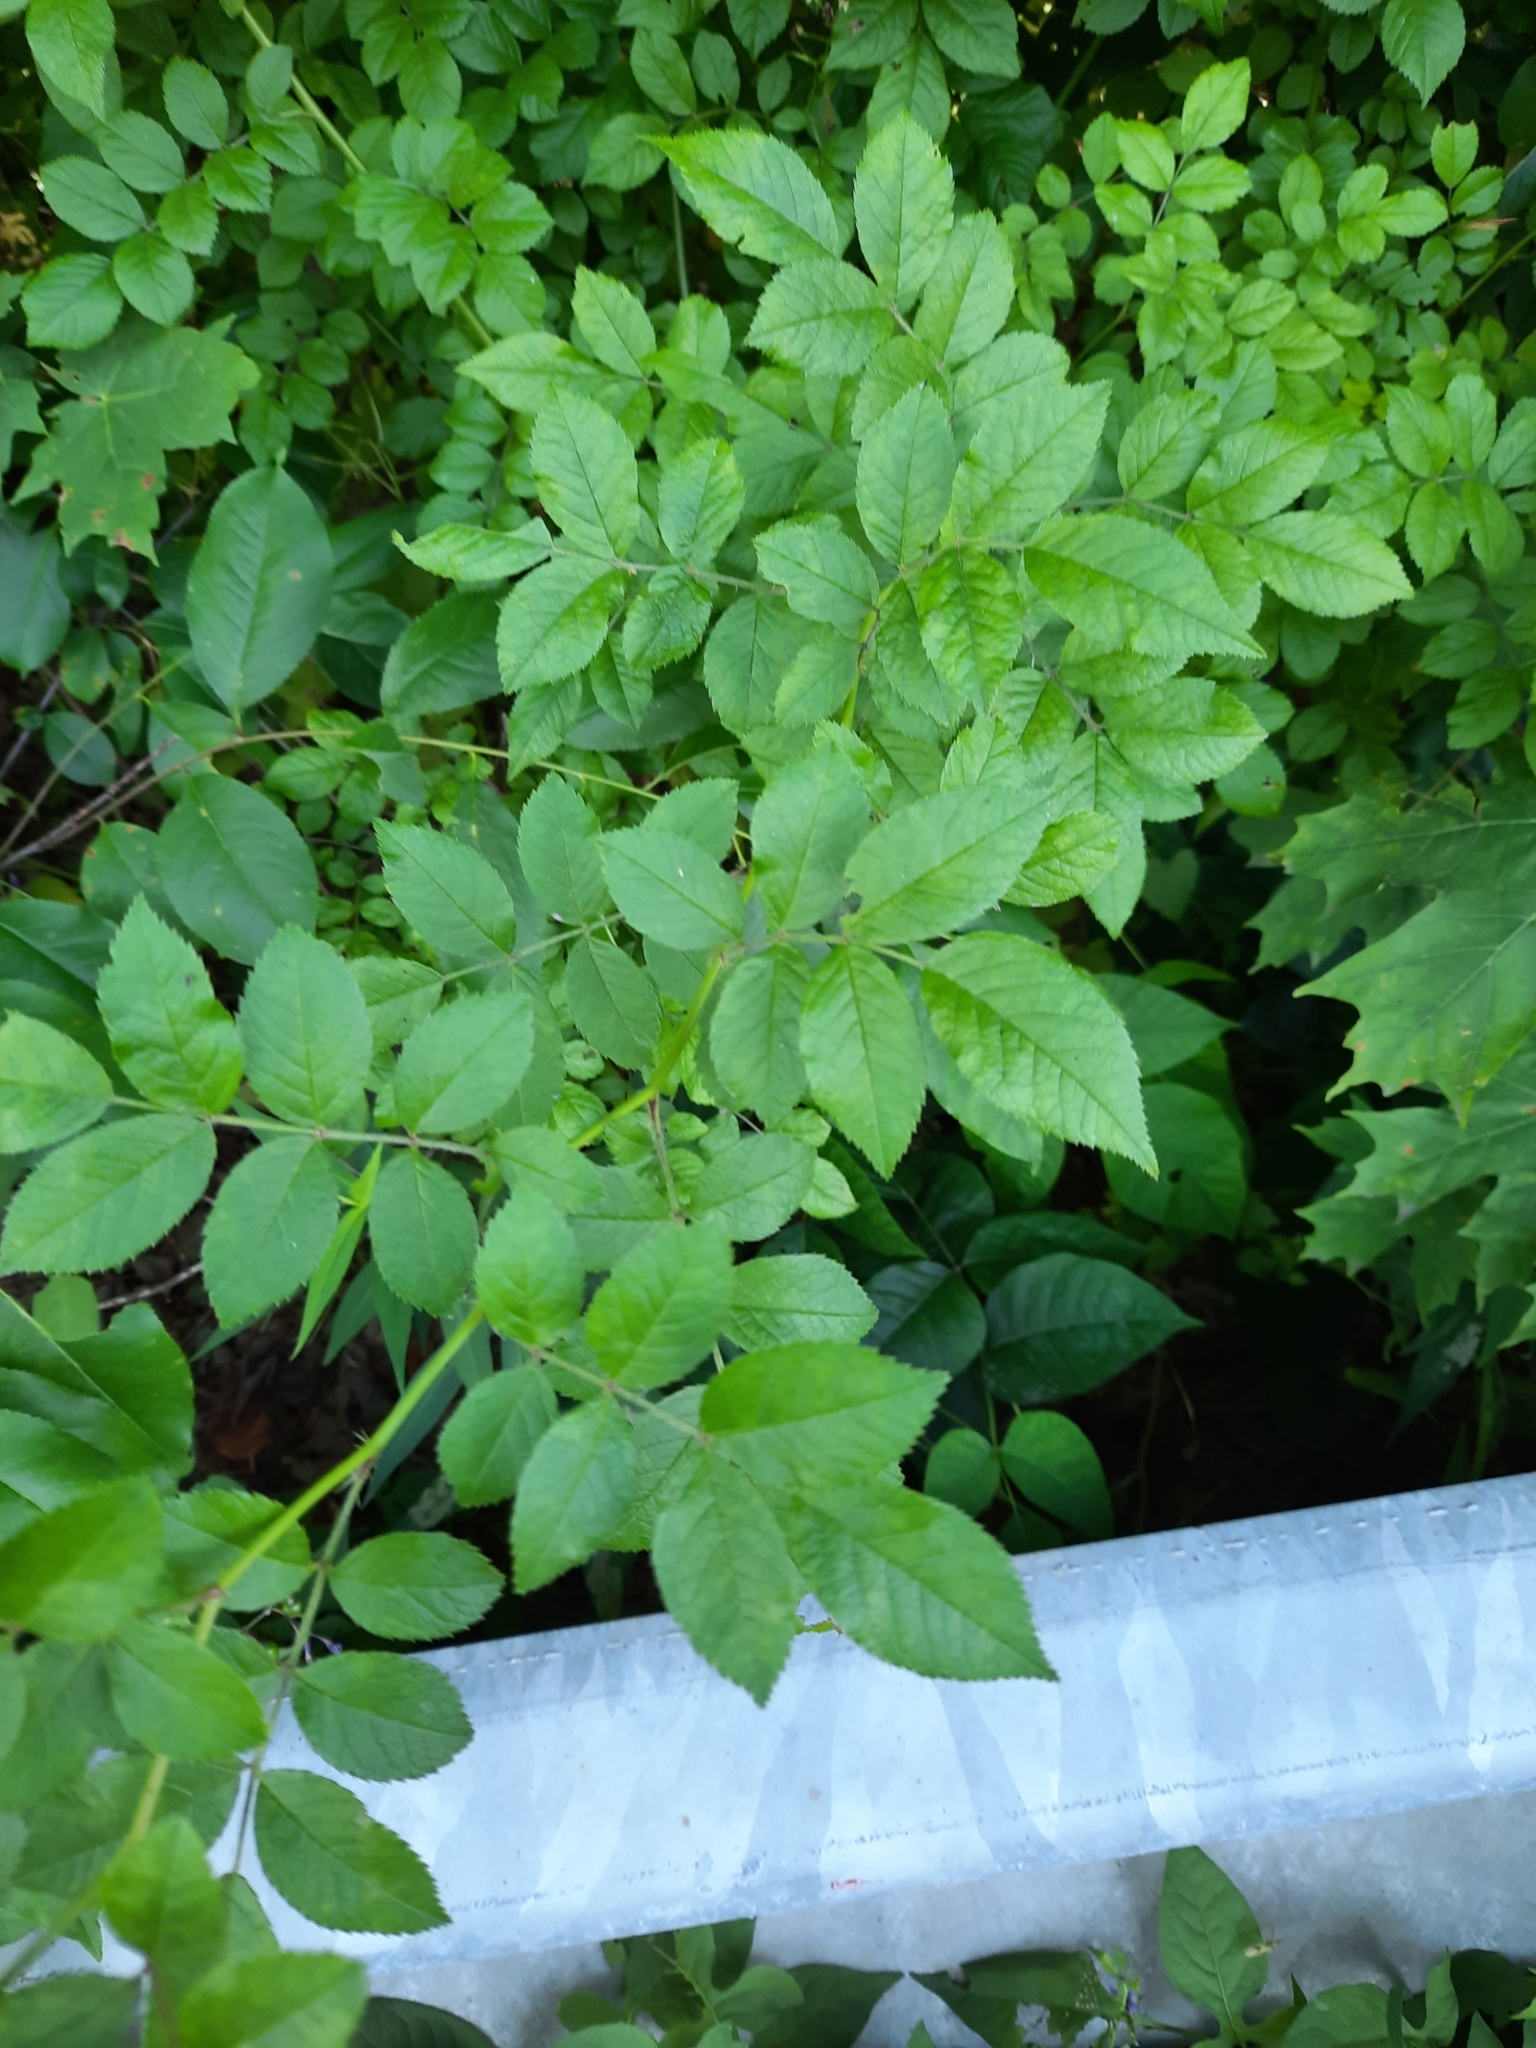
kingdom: Plantae
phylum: Tracheophyta
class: Magnoliopsida
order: Rosales
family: Rosaceae
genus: Rosa
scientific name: Rosa multiflora
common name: Multiflora rose
